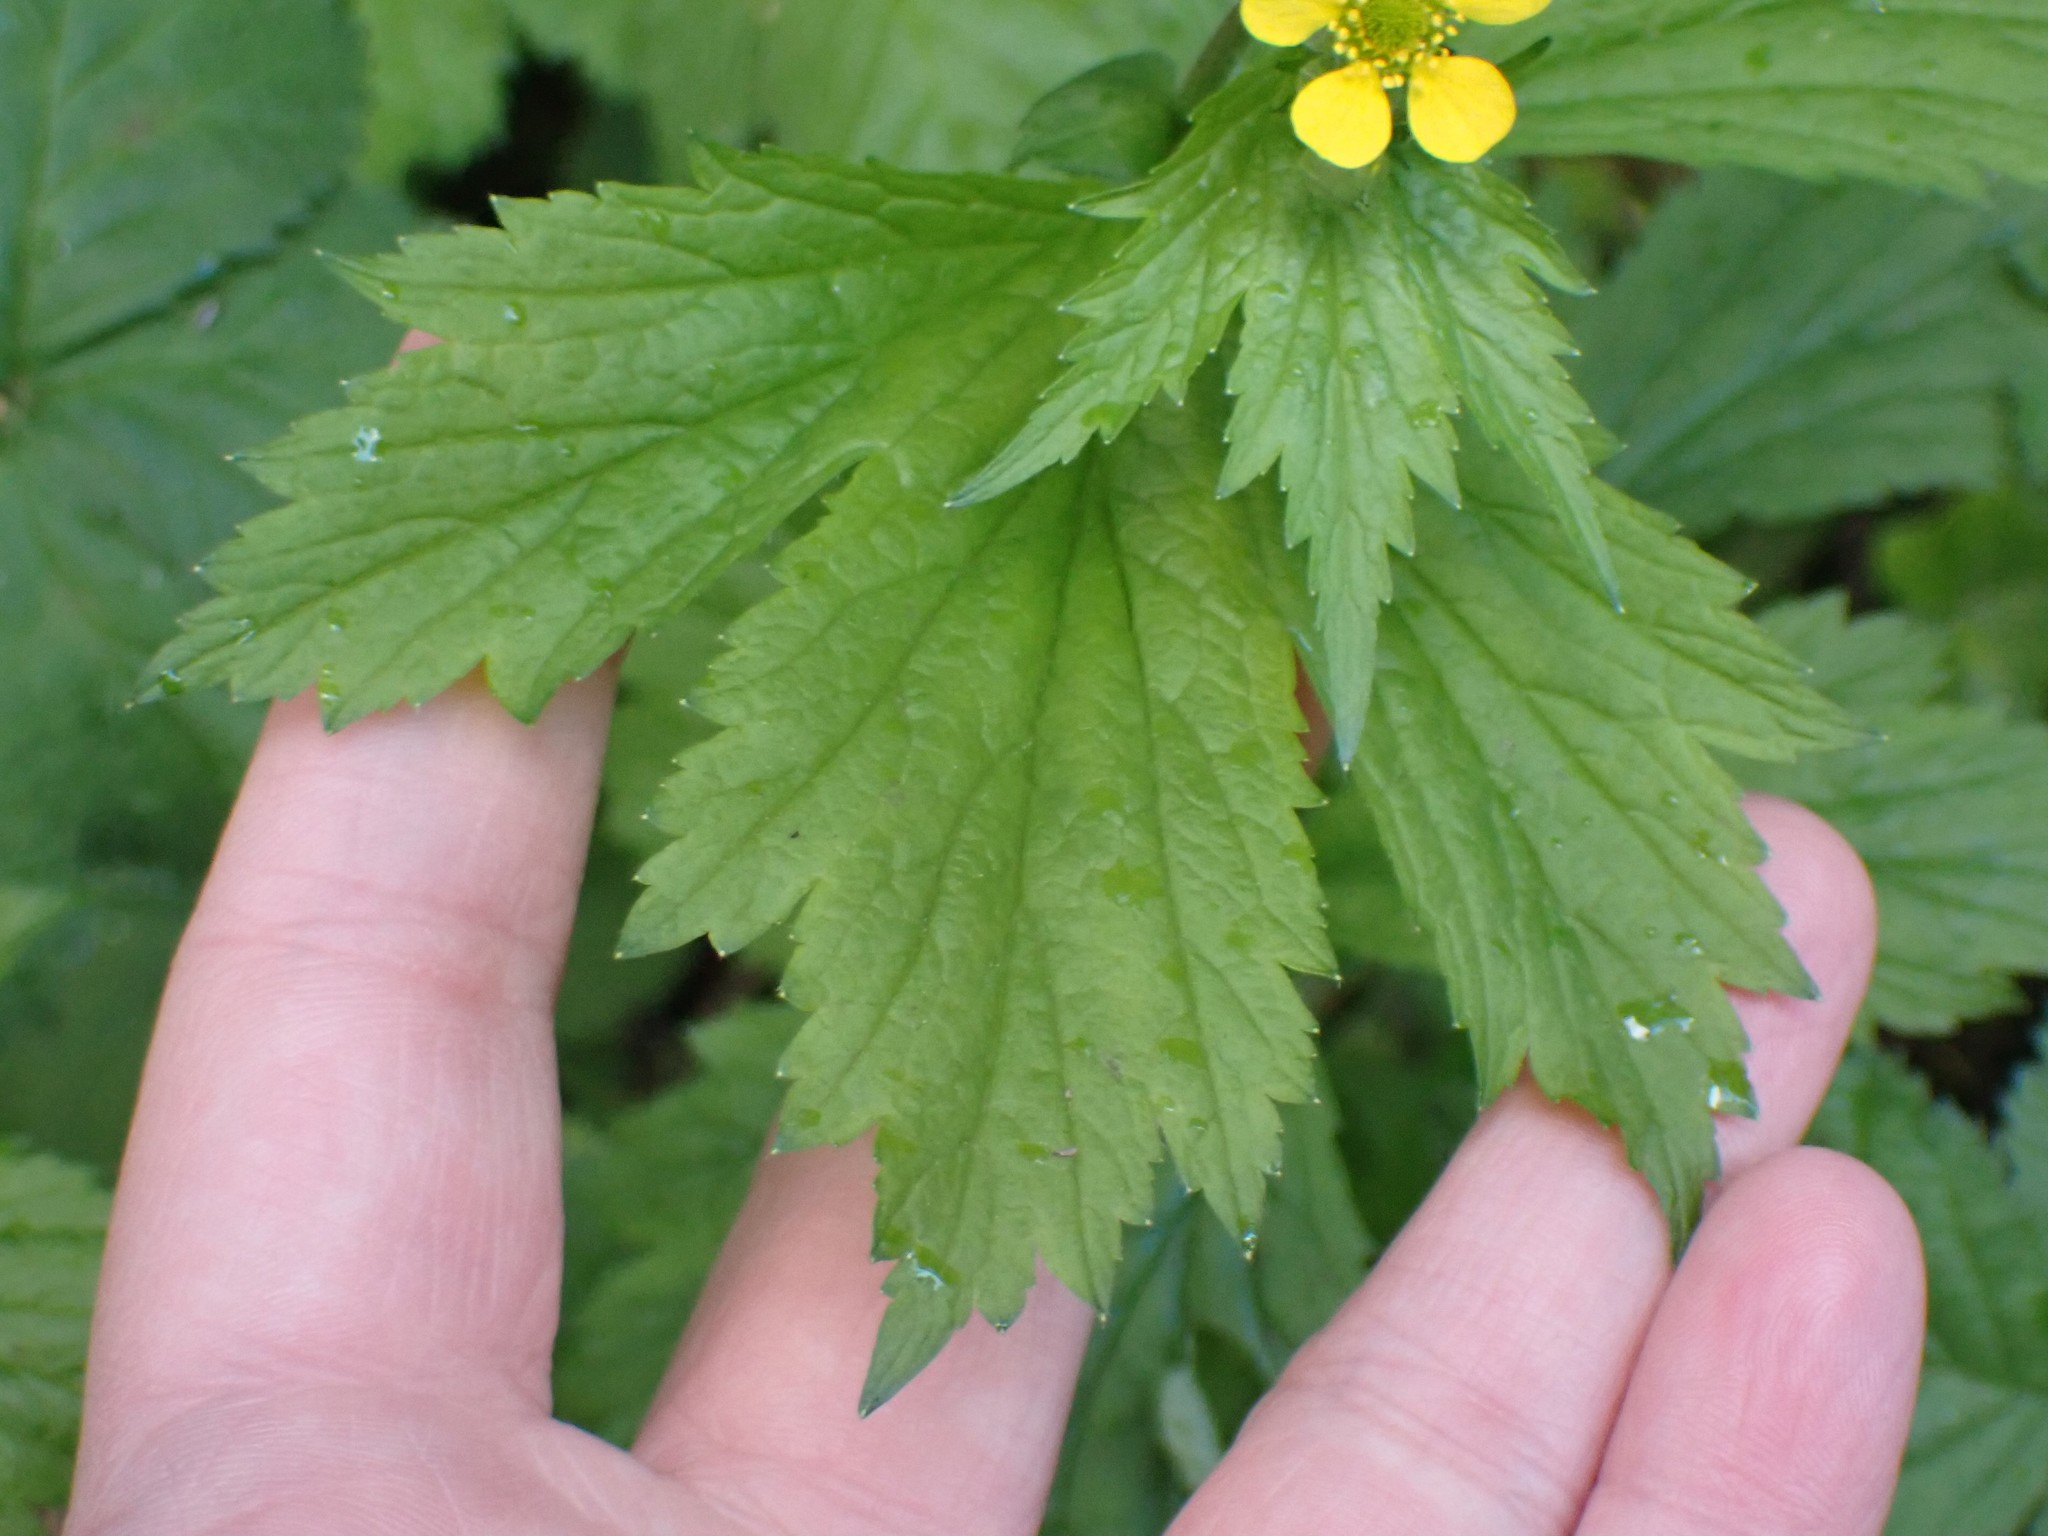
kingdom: Plantae
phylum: Tracheophyta
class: Magnoliopsida
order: Rosales
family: Rosaceae
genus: Geum
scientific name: Geum macrophyllum
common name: Large-leaved avens
